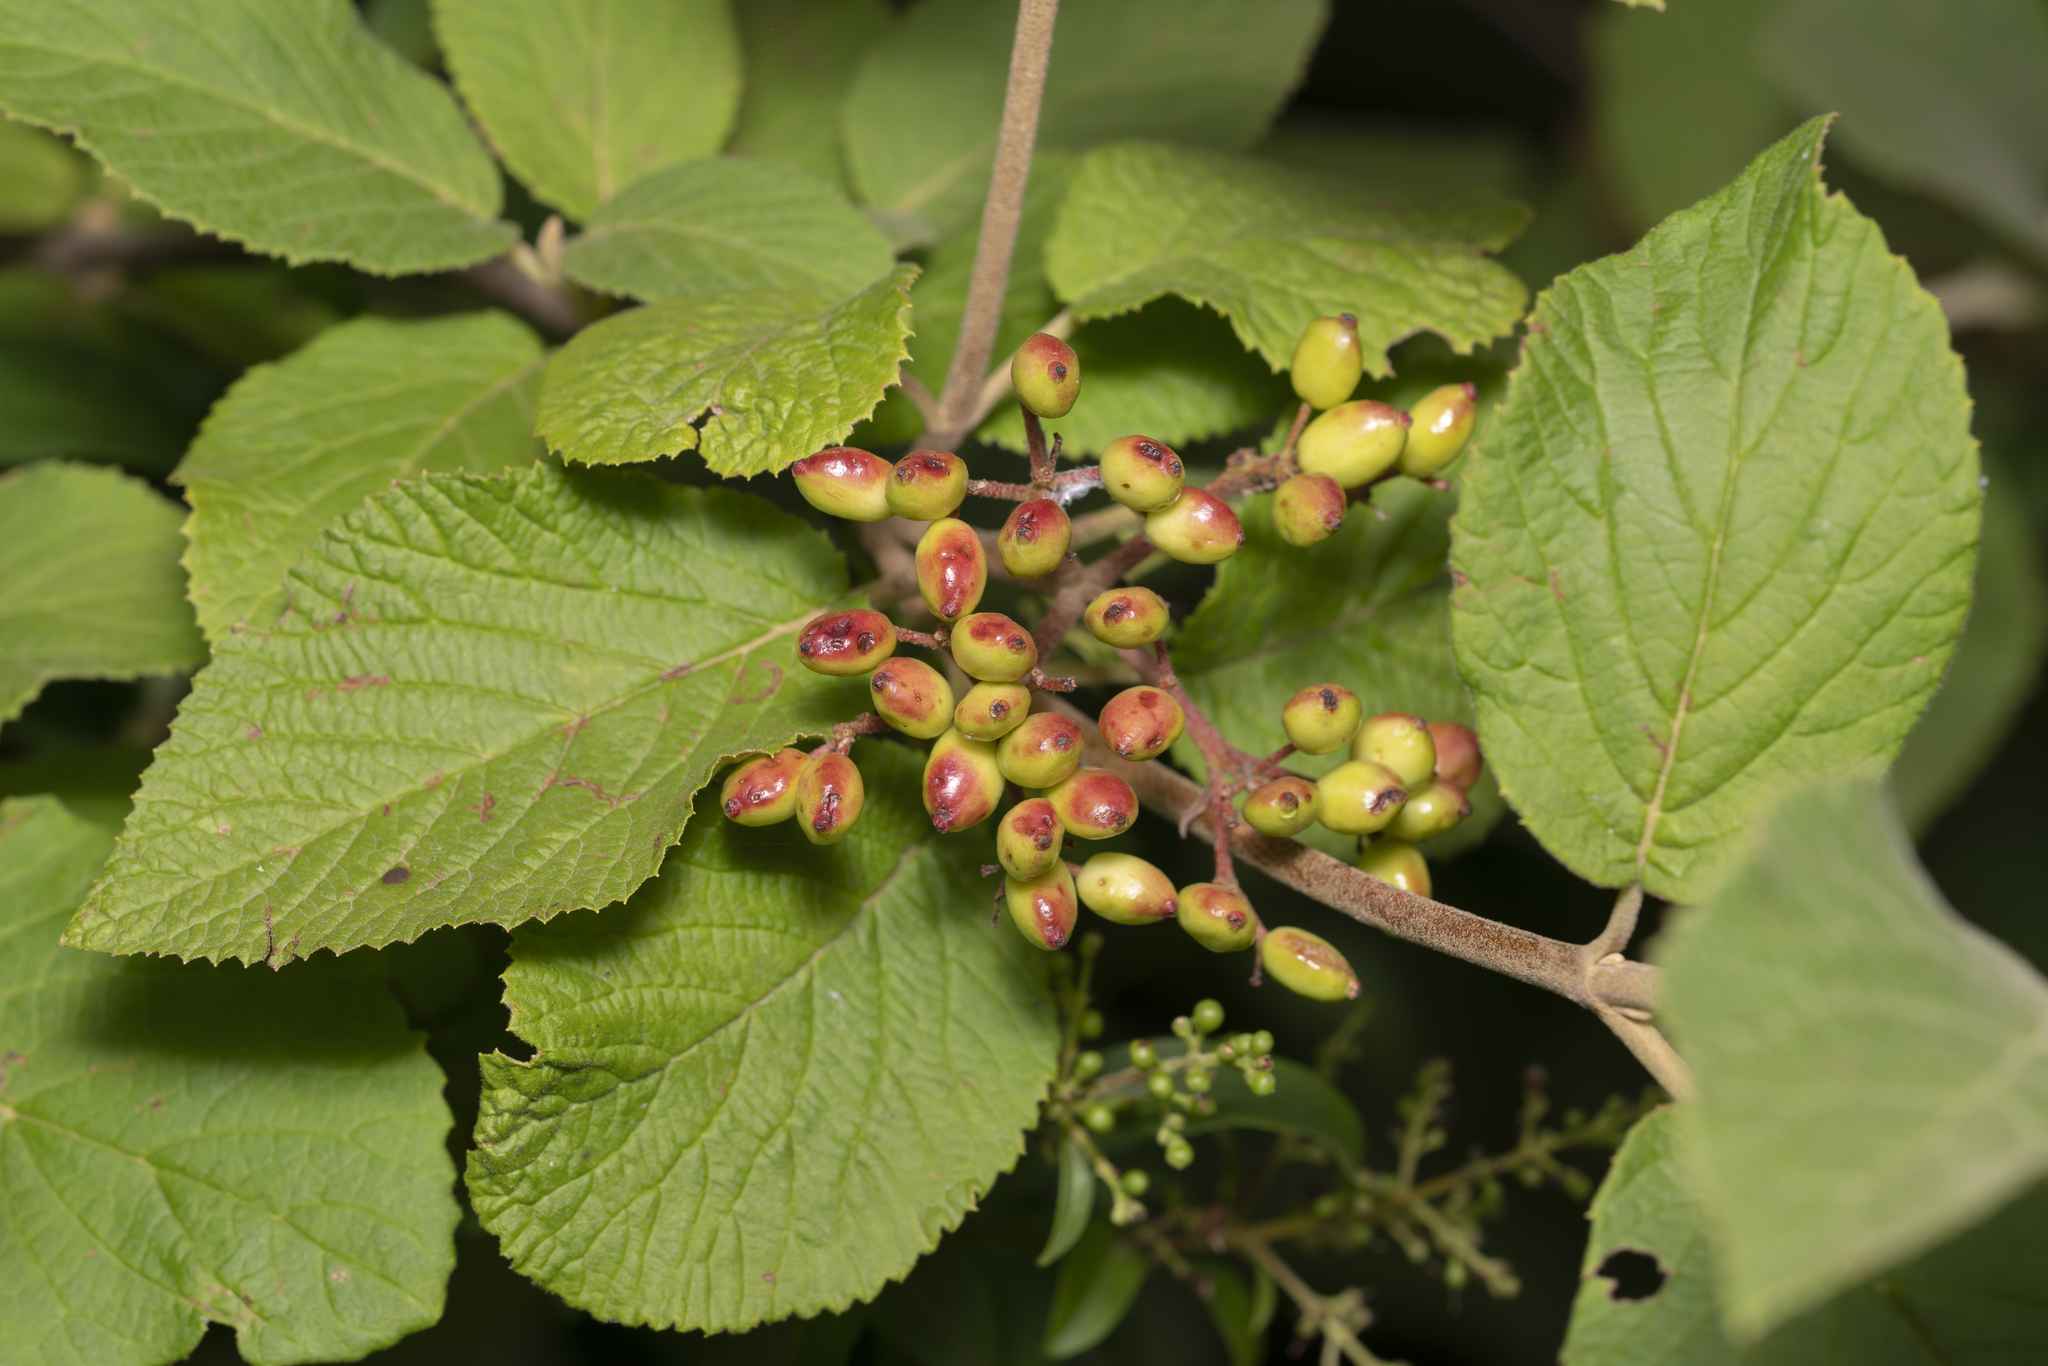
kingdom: Plantae
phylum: Tracheophyta
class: Magnoliopsida
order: Dipsacales
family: Viburnaceae
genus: Viburnum
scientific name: Viburnum lantana
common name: Wayfaring tree
